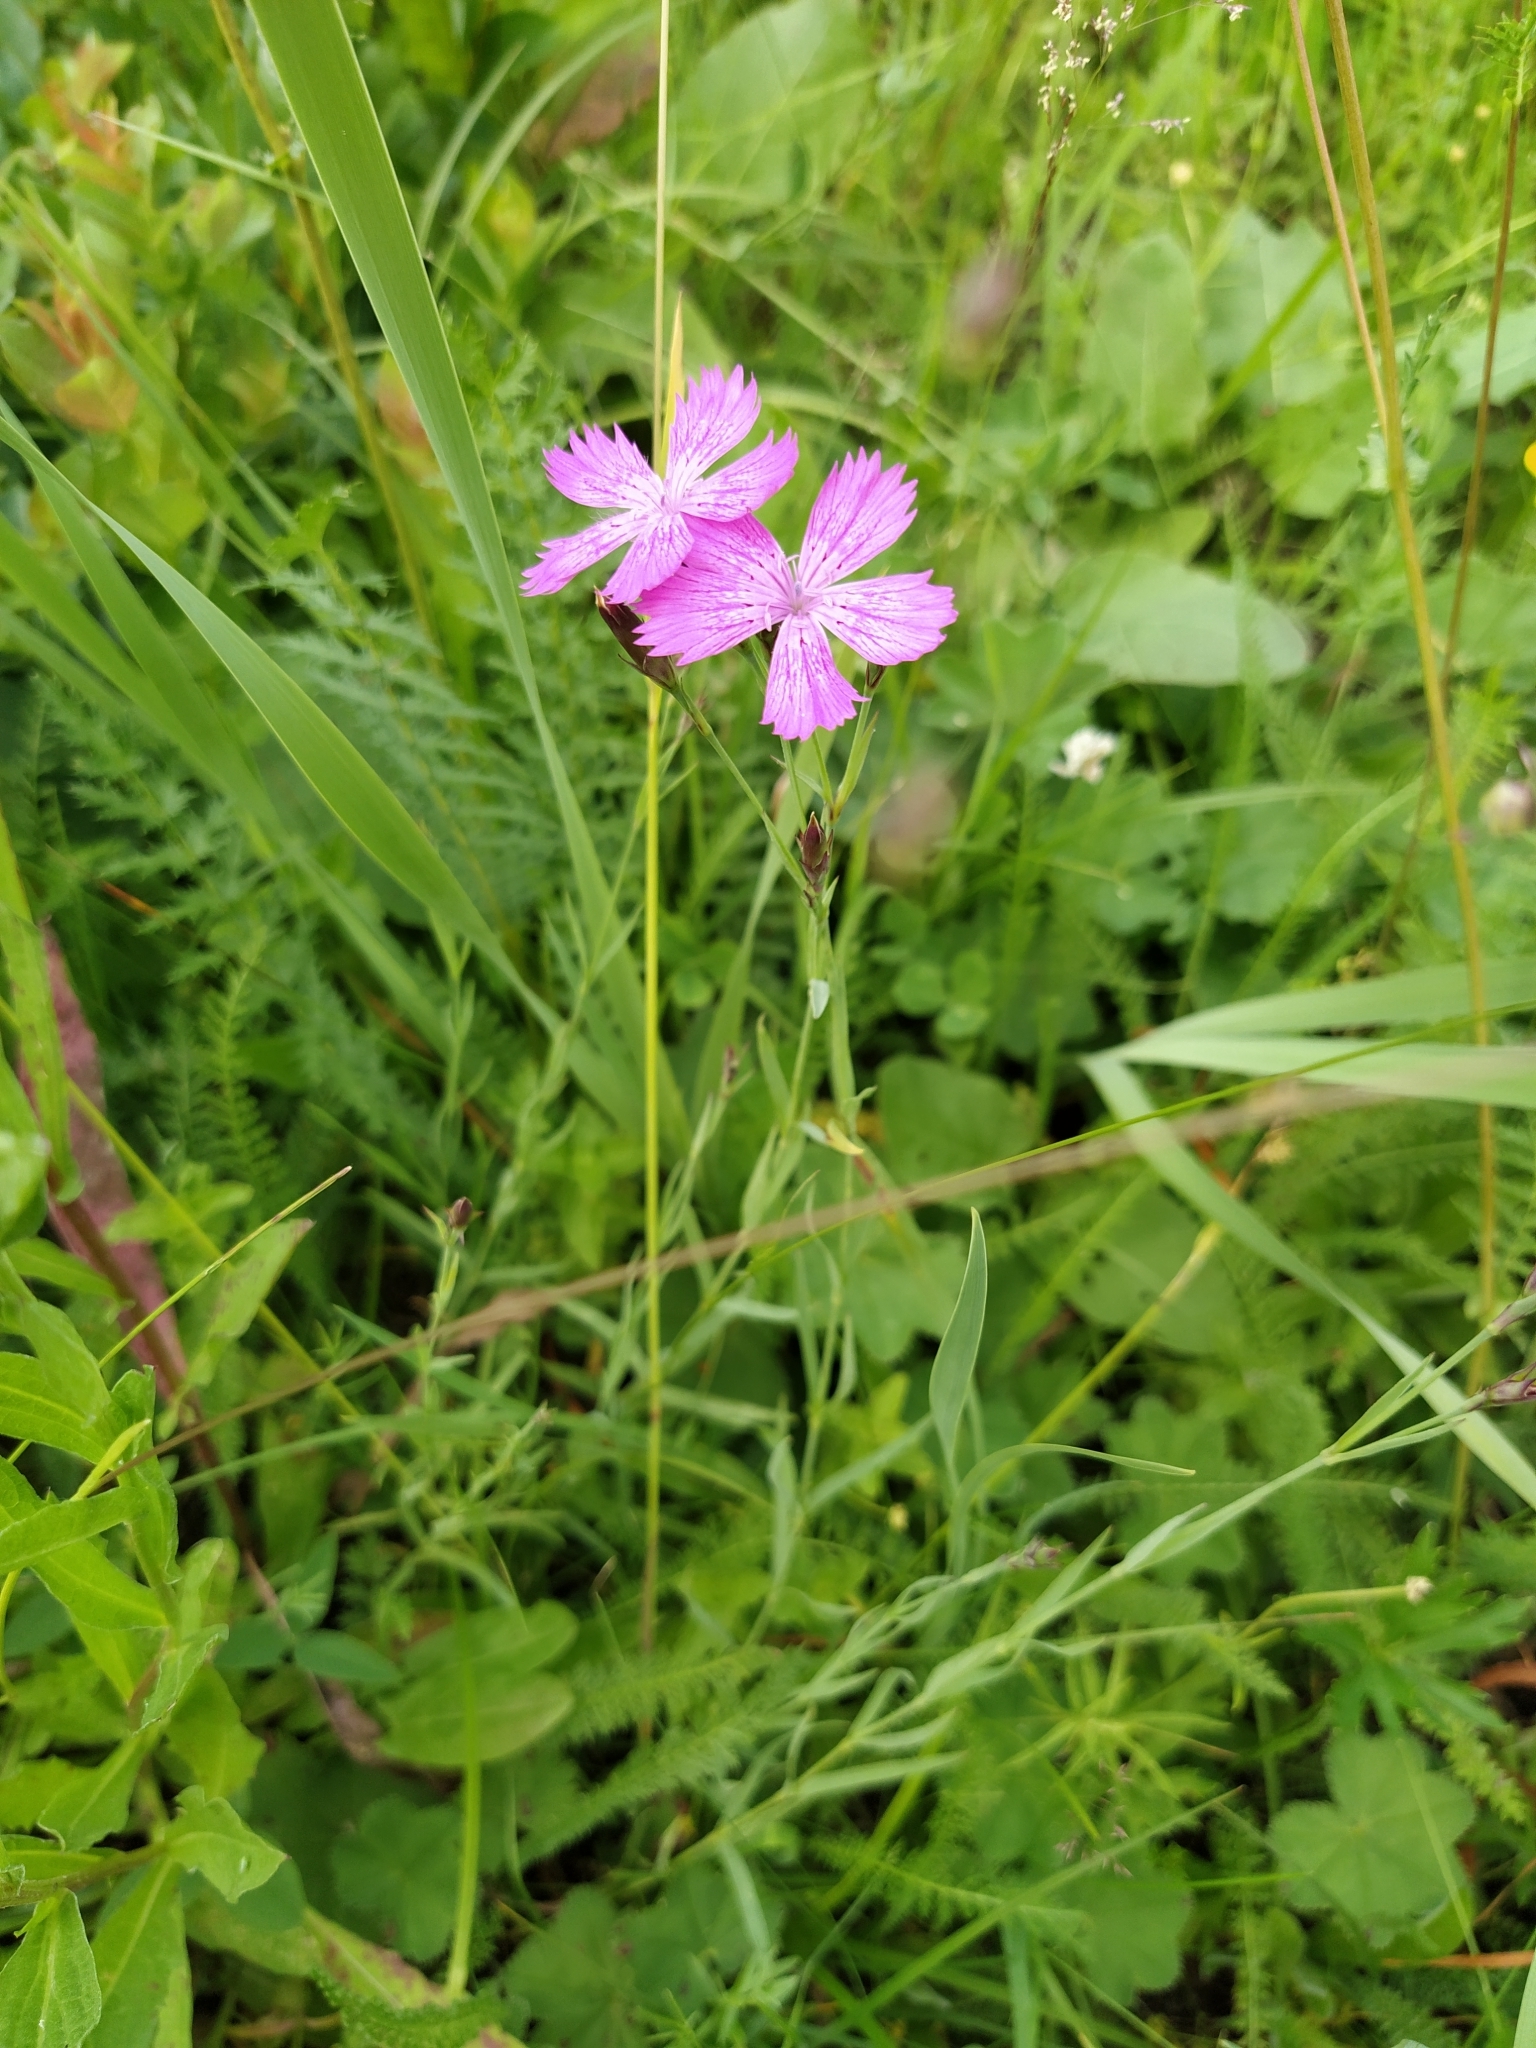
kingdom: Plantae
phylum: Tracheophyta
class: Magnoliopsida
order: Caryophyllales
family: Caryophyllaceae
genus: Dianthus
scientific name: Dianthus chinensis
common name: Rainbow pink
